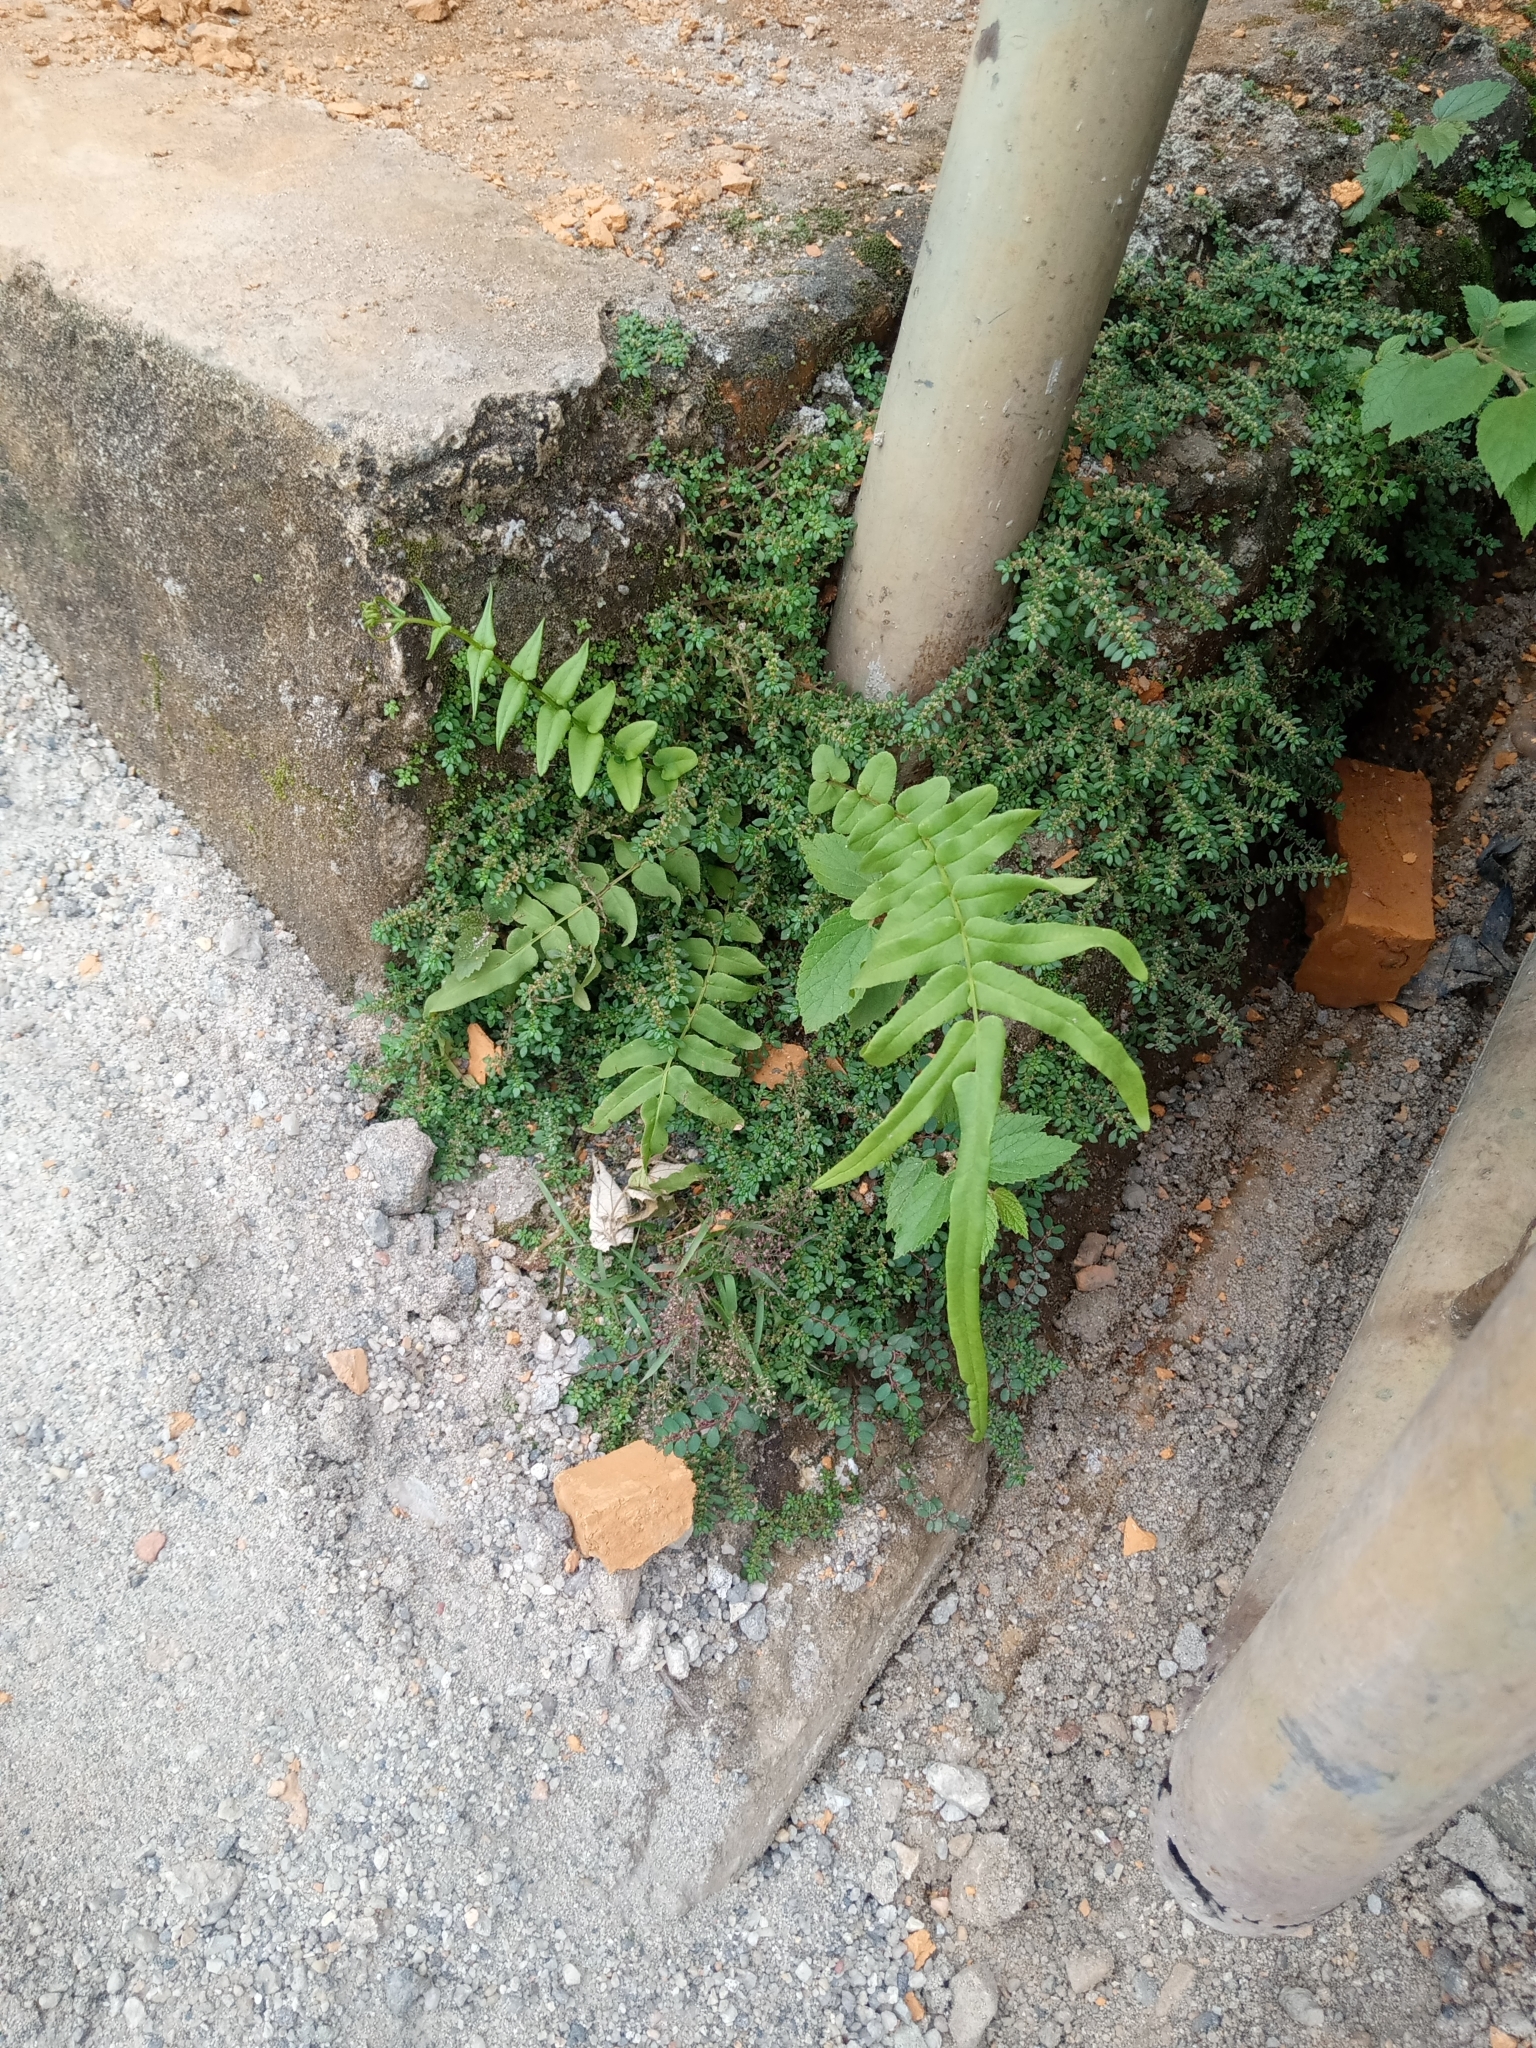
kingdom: Plantae
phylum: Tracheophyta
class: Polypodiopsida
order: Polypodiales
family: Pteridaceae
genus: Pteris
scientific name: Pteris vittata
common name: Ladder brake
